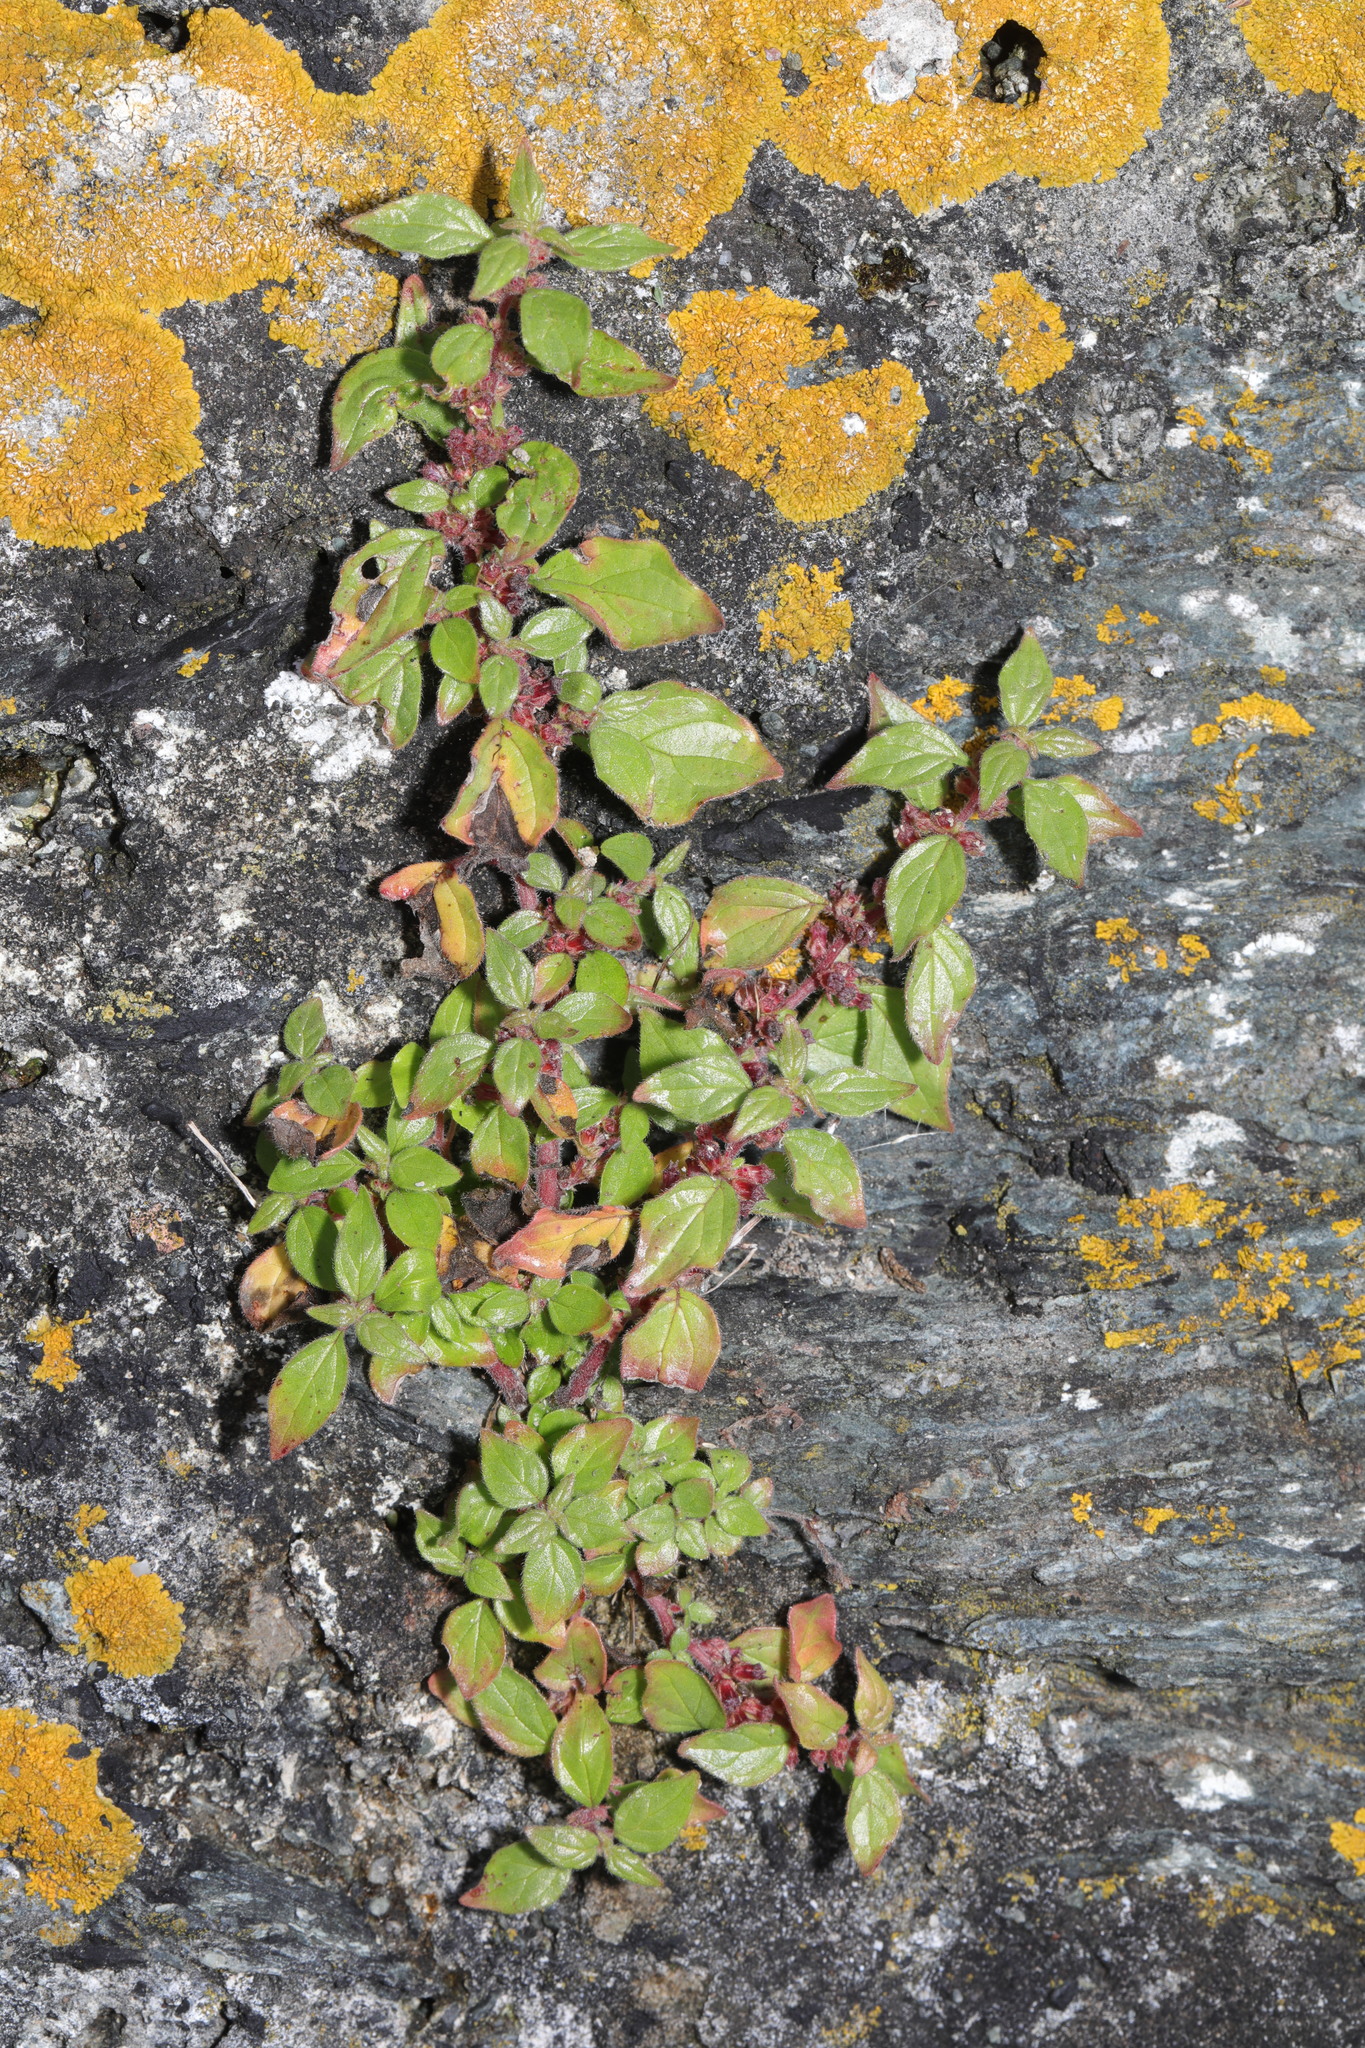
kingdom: Plantae
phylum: Tracheophyta
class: Magnoliopsida
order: Rosales
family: Urticaceae
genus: Parietaria
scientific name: Parietaria judaica
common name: Pellitory-of-the-wall
